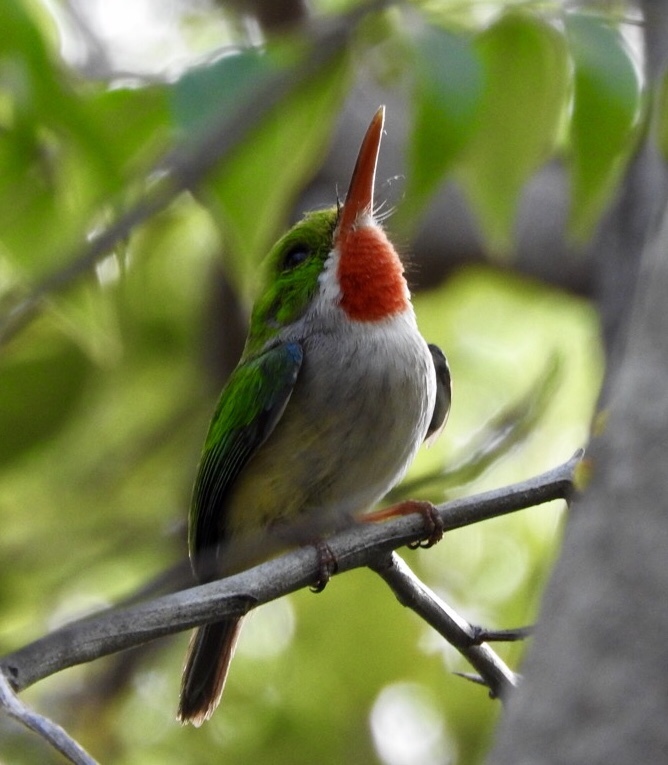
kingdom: Animalia
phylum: Chordata
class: Aves
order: Coraciiformes
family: Todidae
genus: Todus
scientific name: Todus mexicanus
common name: Puerto rican tody
